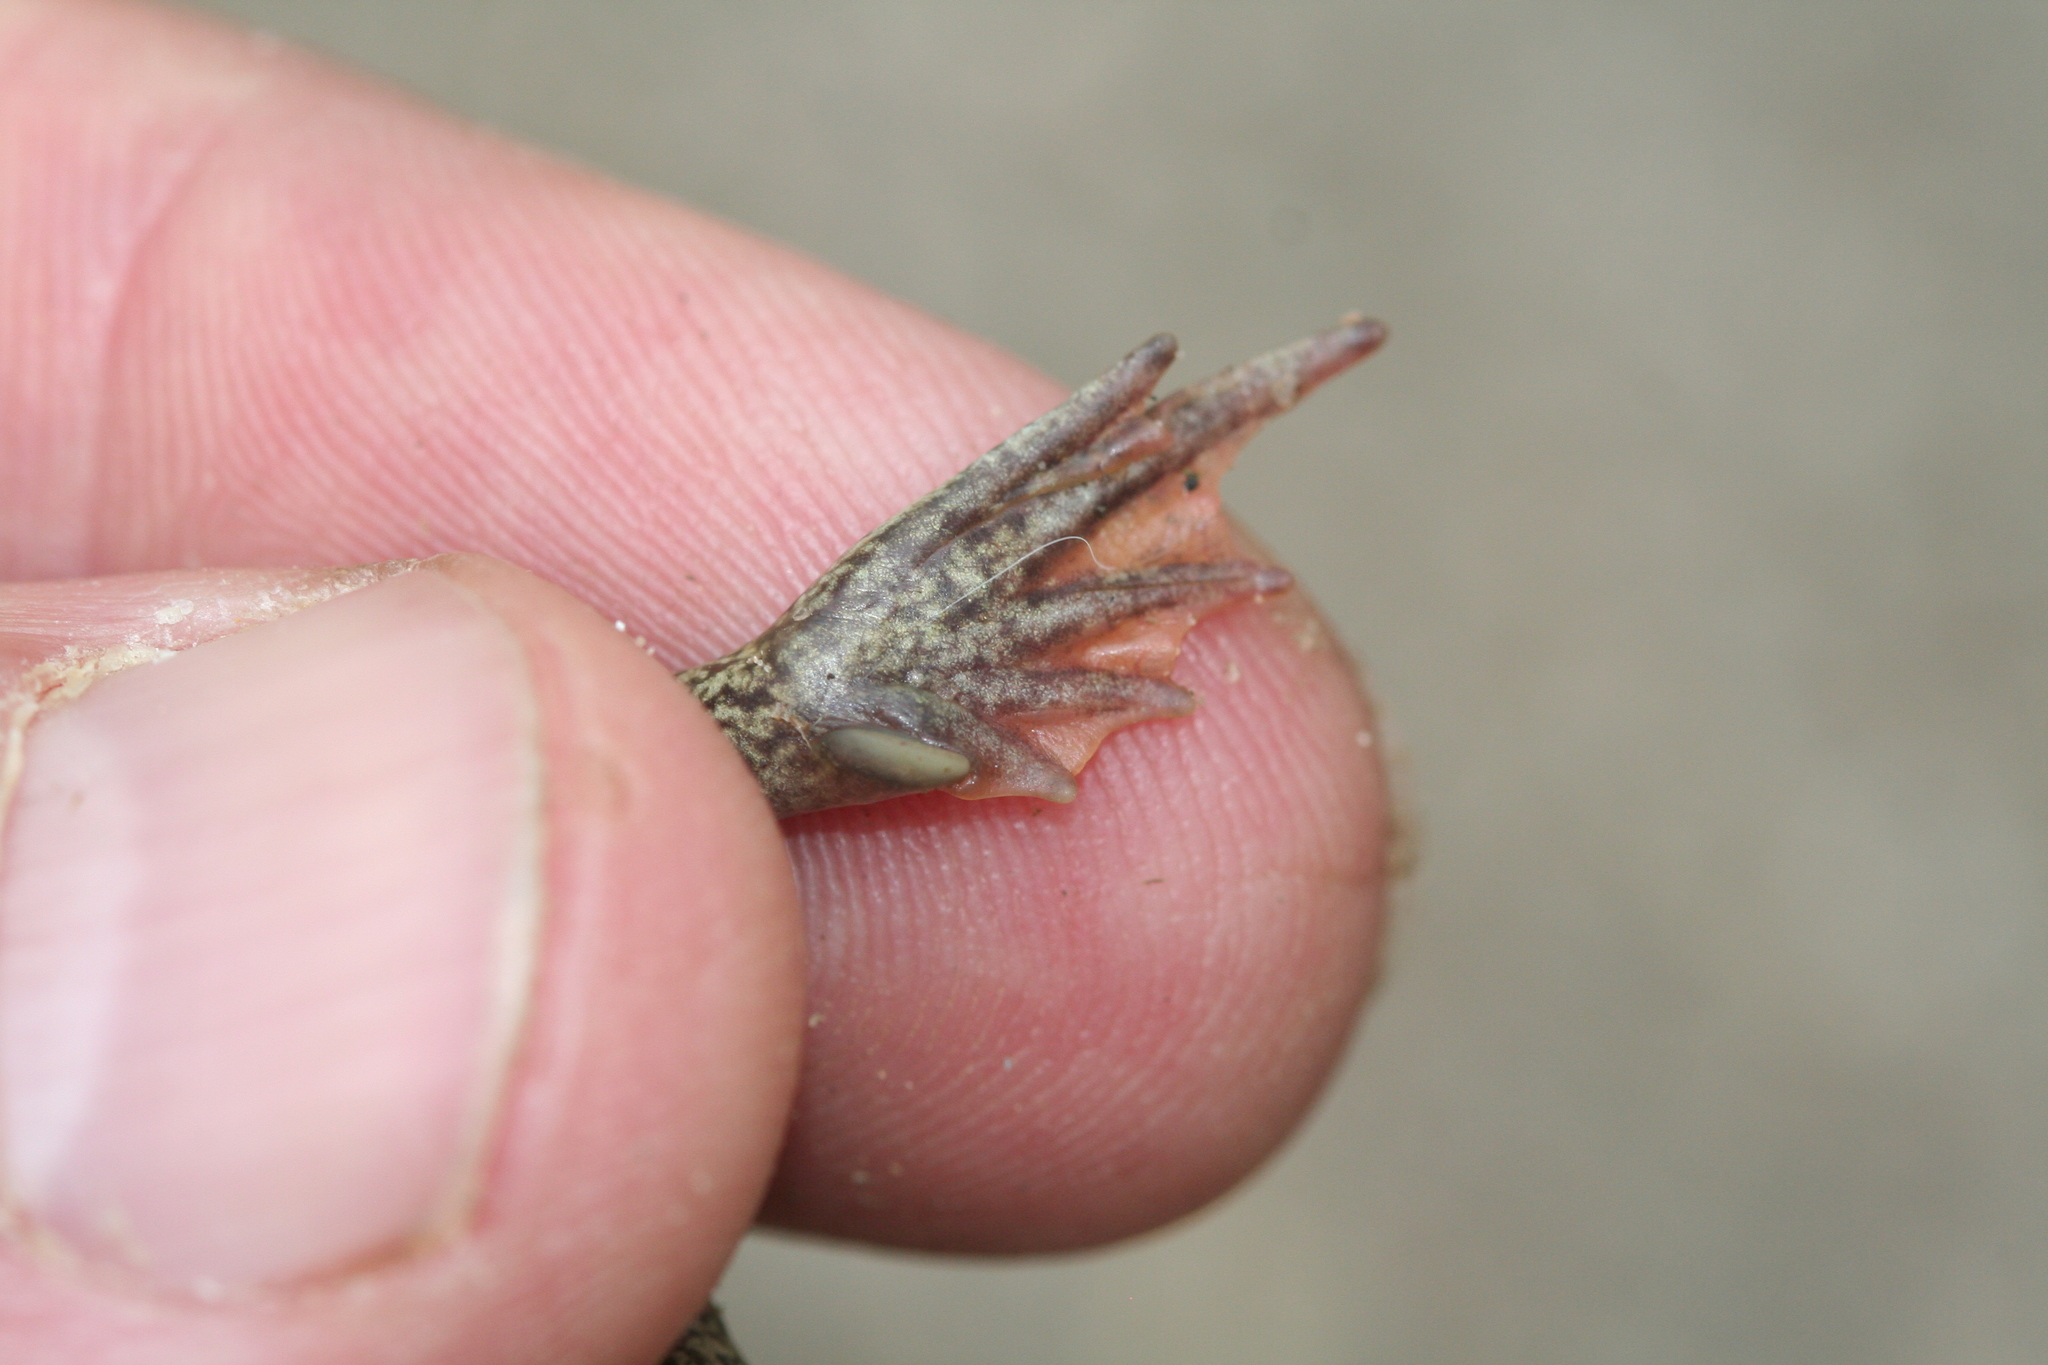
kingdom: Animalia
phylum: Chordata
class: Amphibia
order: Anura
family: Pelobatidae
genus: Pelobates
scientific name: Pelobates fuscus
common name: Common eurasian spadefoot toad
